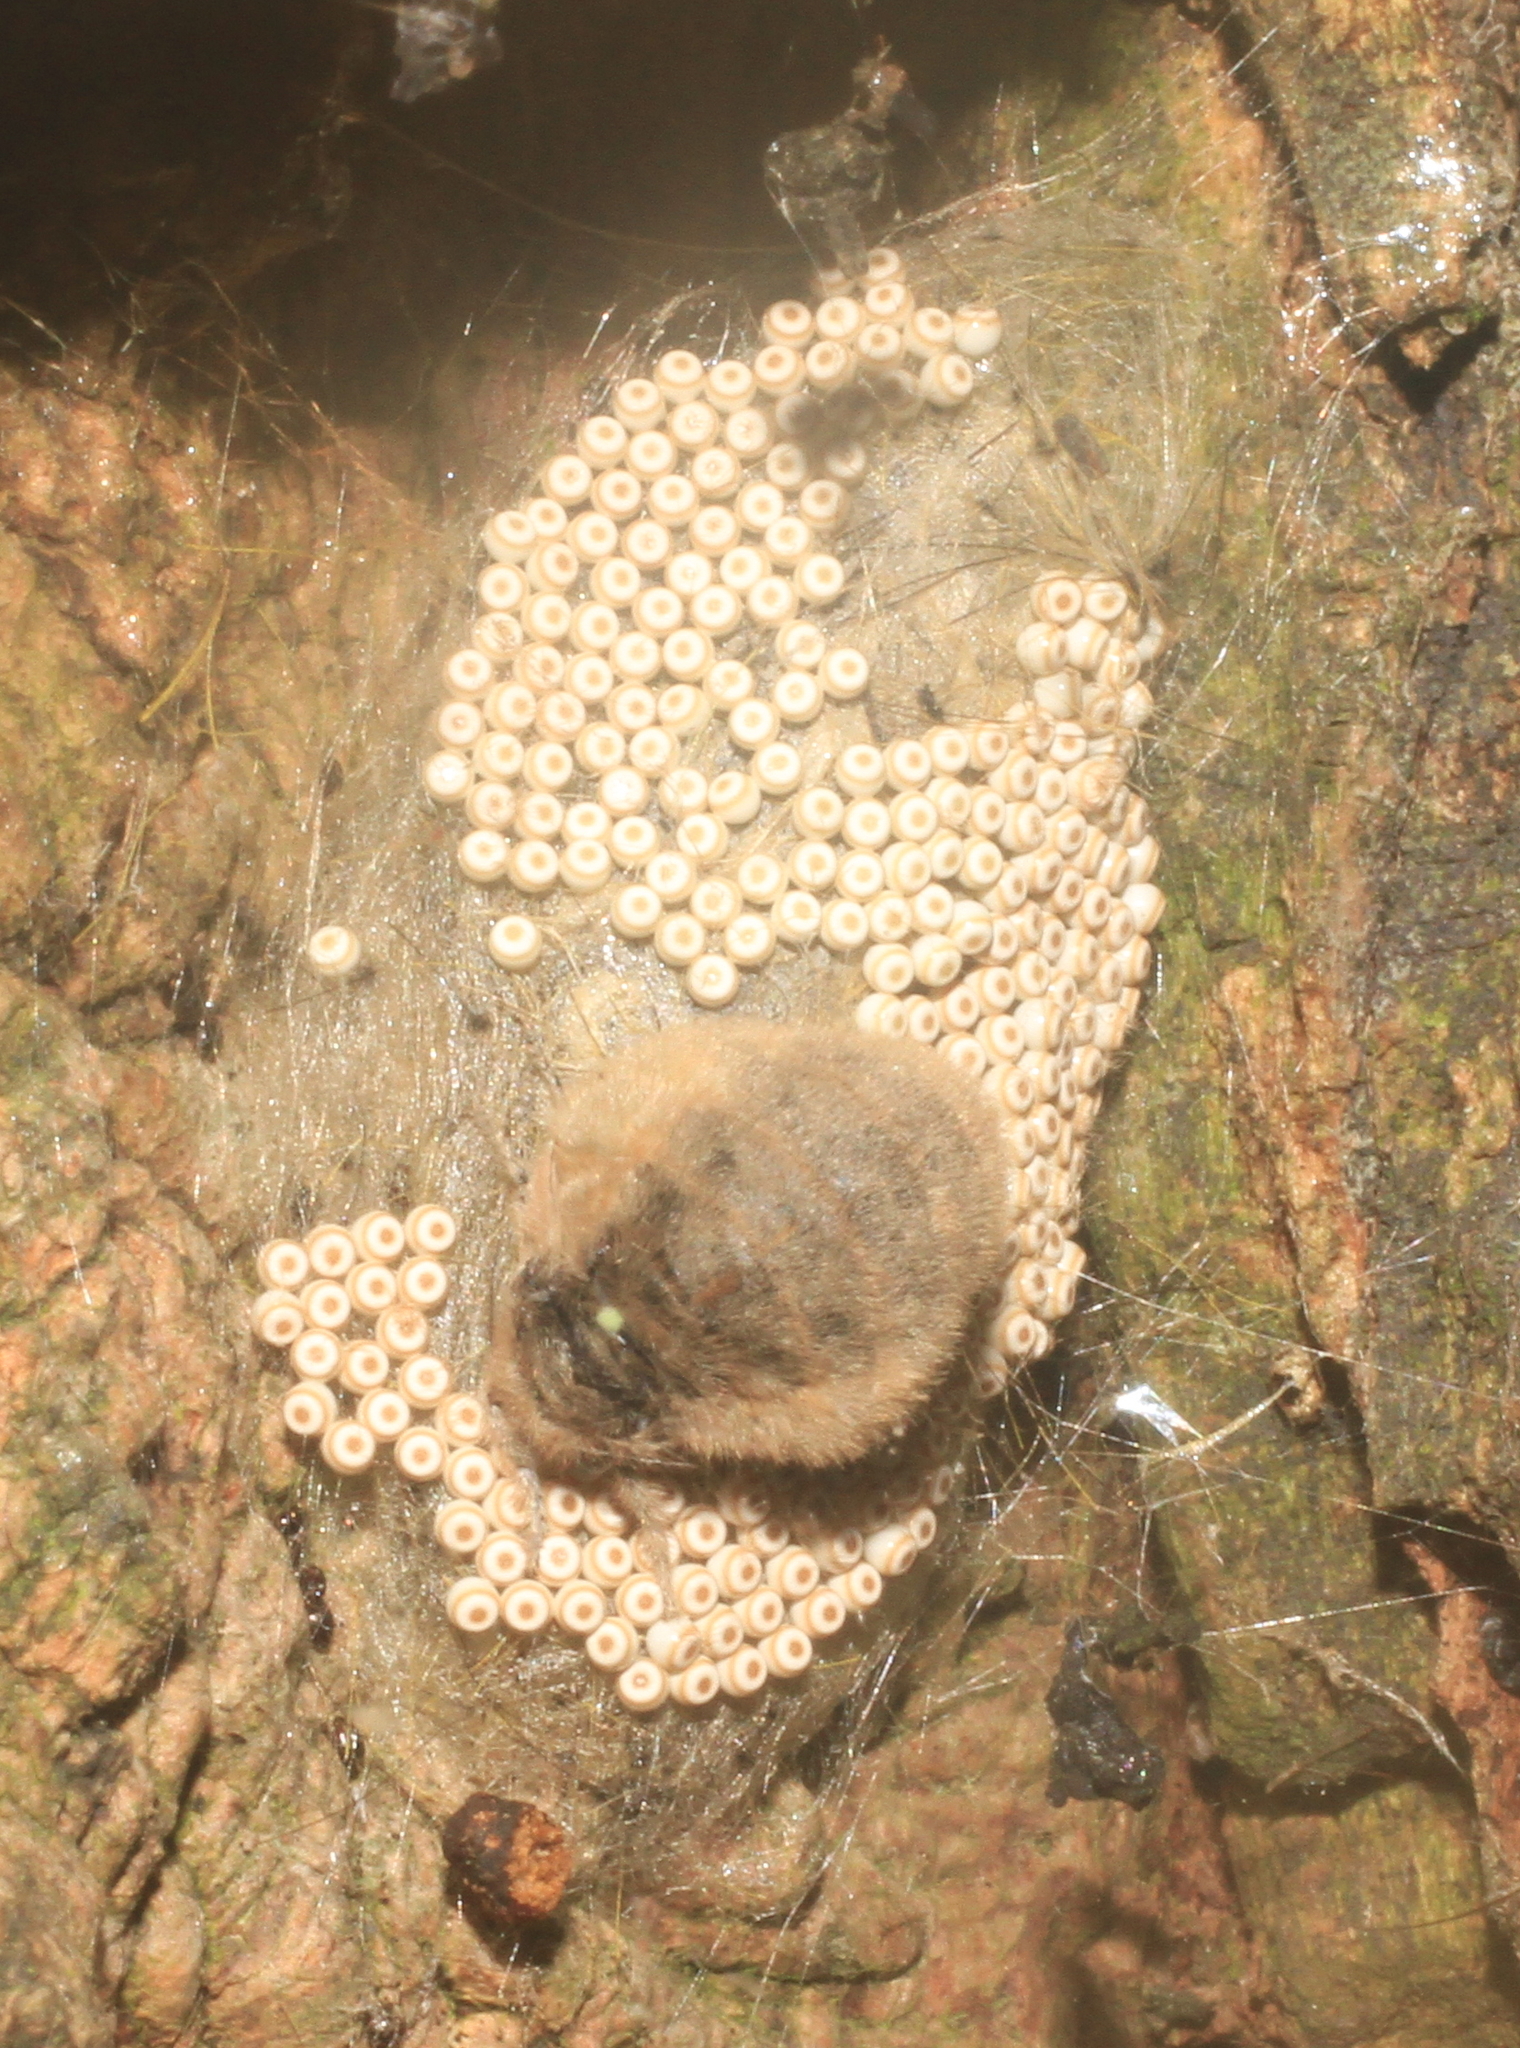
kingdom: Animalia
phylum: Arthropoda
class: Insecta
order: Lepidoptera
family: Erebidae
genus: Orgyia
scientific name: Orgyia antiqua
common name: Vapourer
